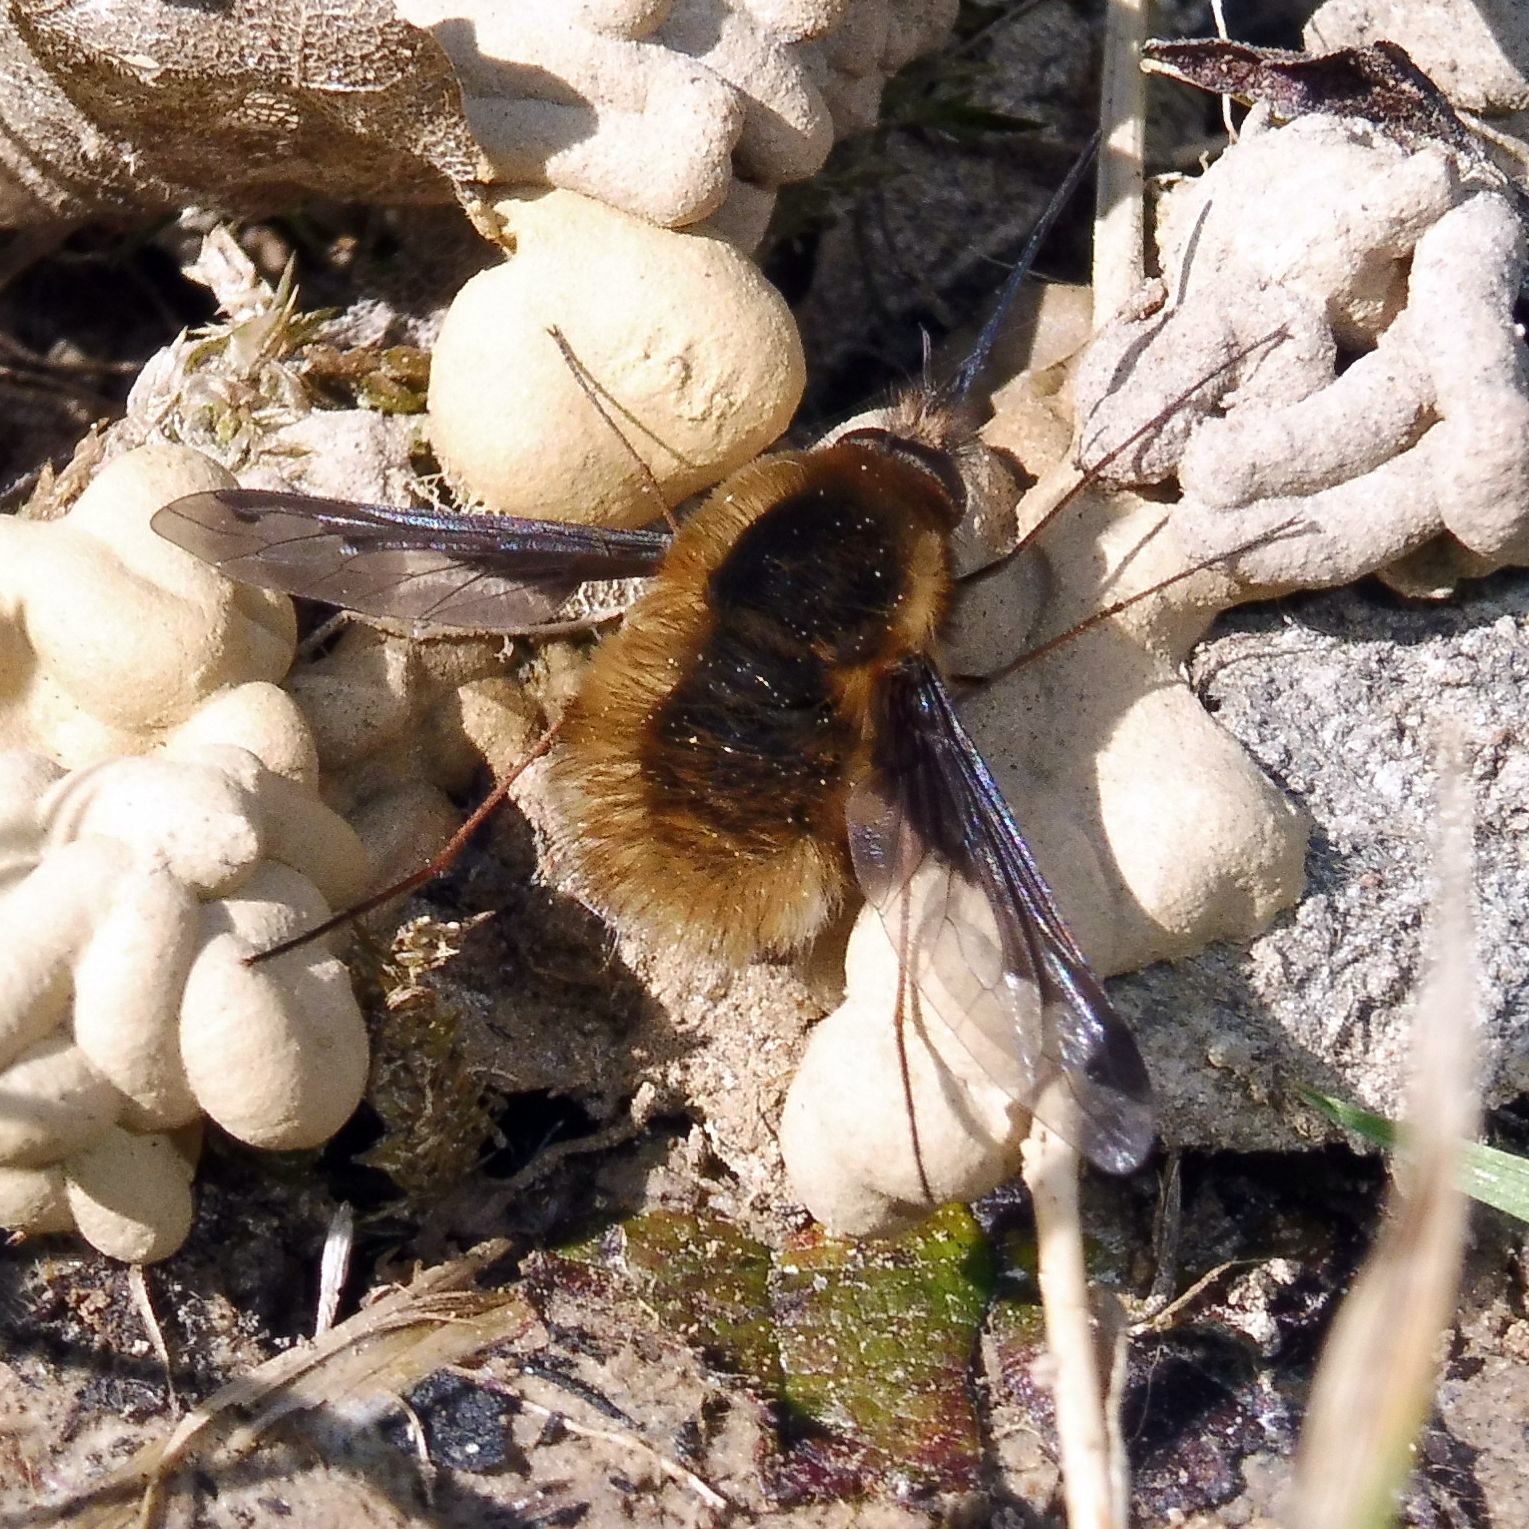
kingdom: Animalia
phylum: Arthropoda
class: Insecta
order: Diptera
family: Bombyliidae
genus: Bombylius
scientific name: Bombylius major
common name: Bee fly
